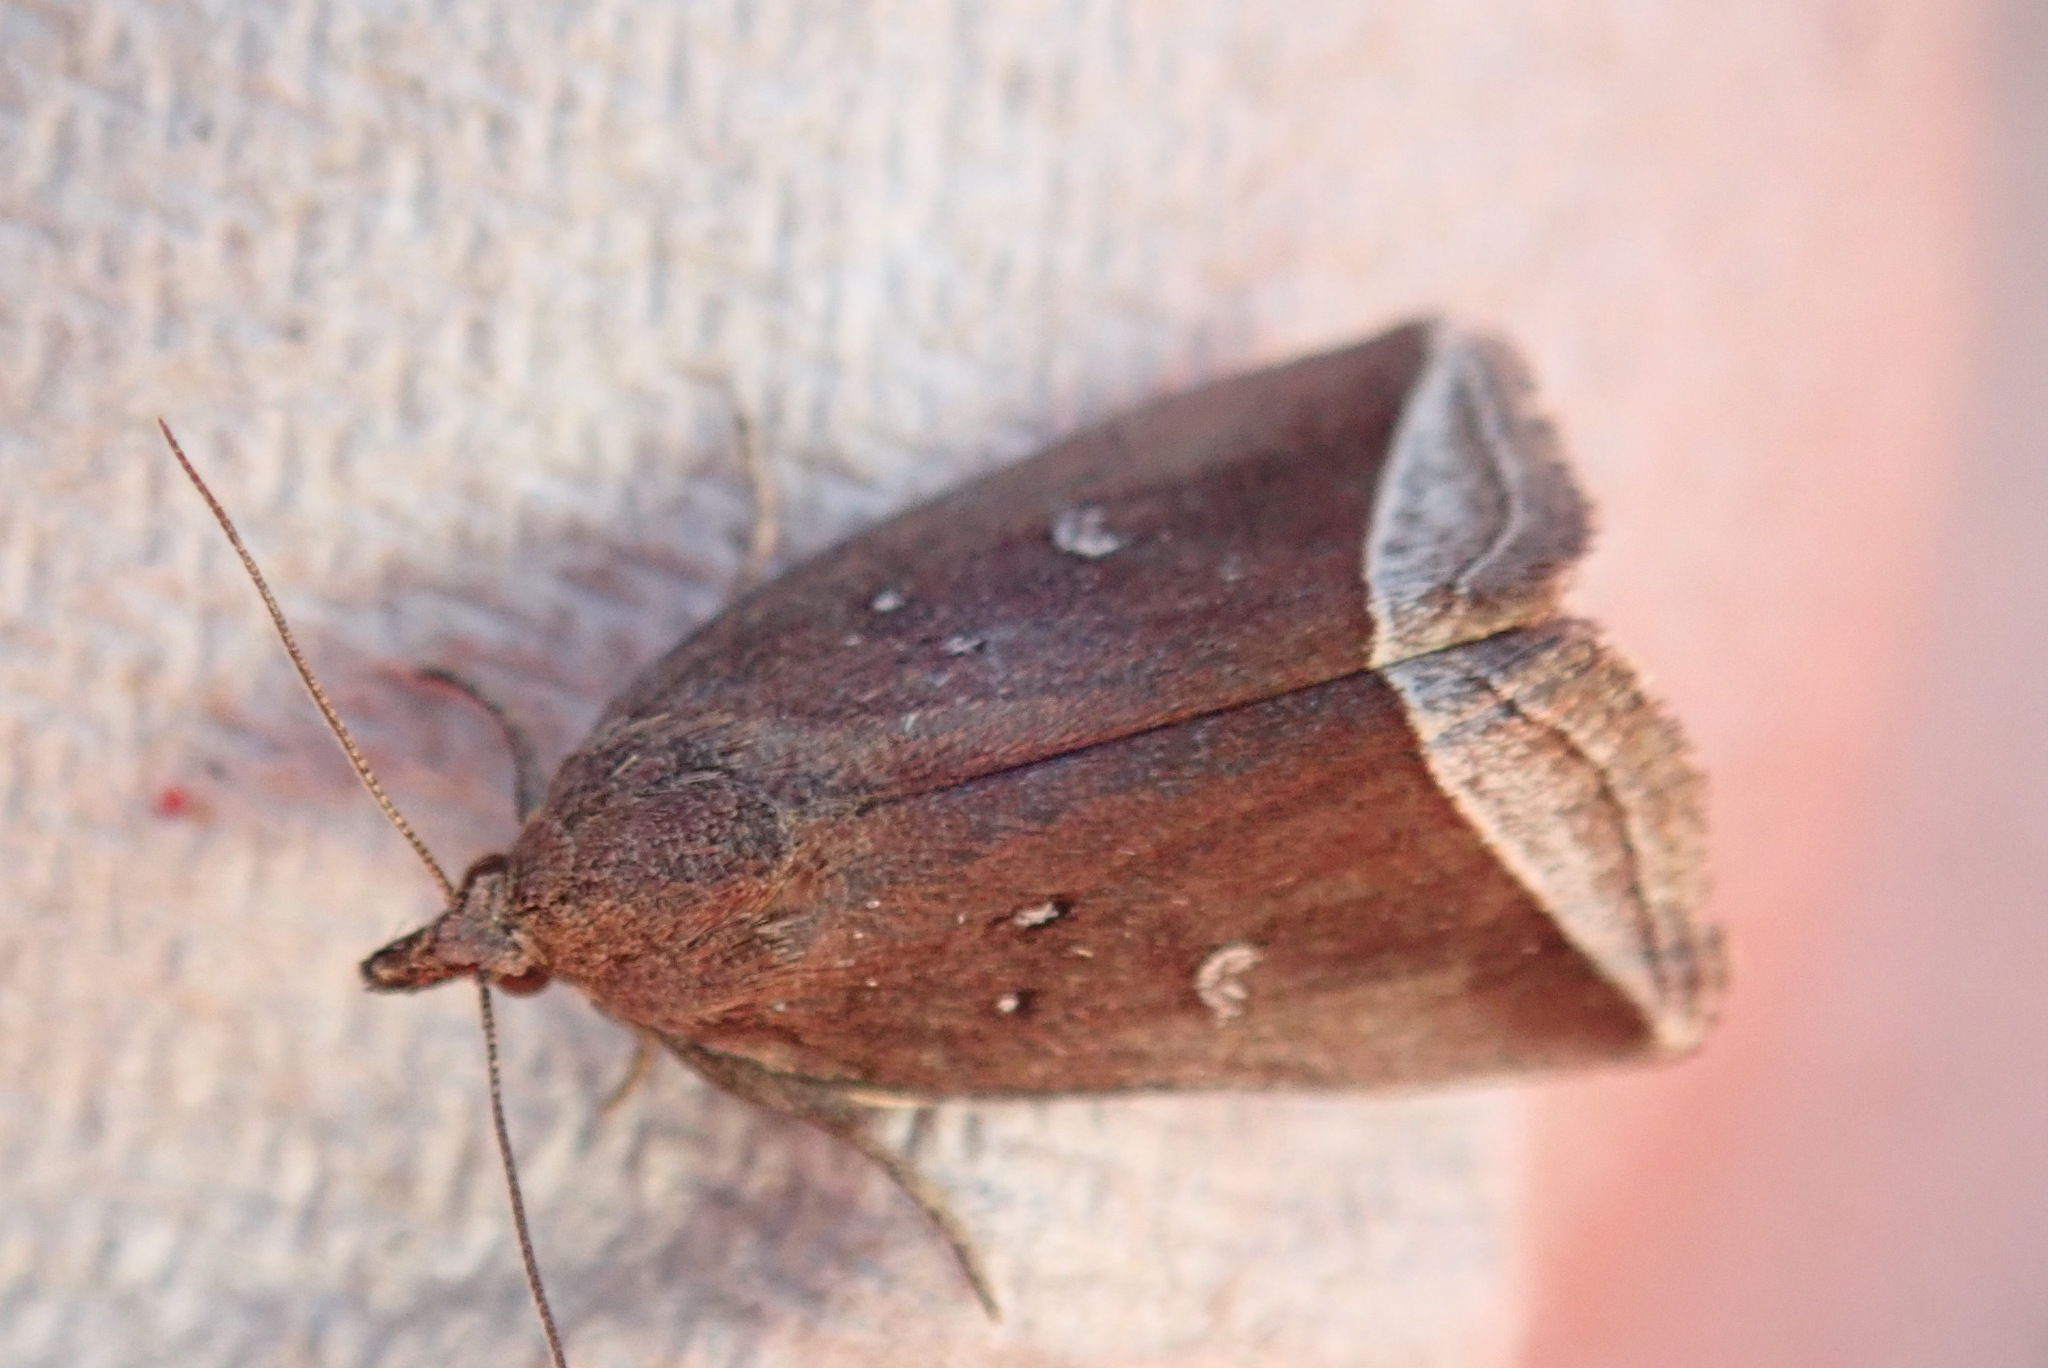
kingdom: Animalia
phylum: Arthropoda
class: Insecta
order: Lepidoptera
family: Erebidae
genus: Capis
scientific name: Capis curvata
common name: Curved halter moth
